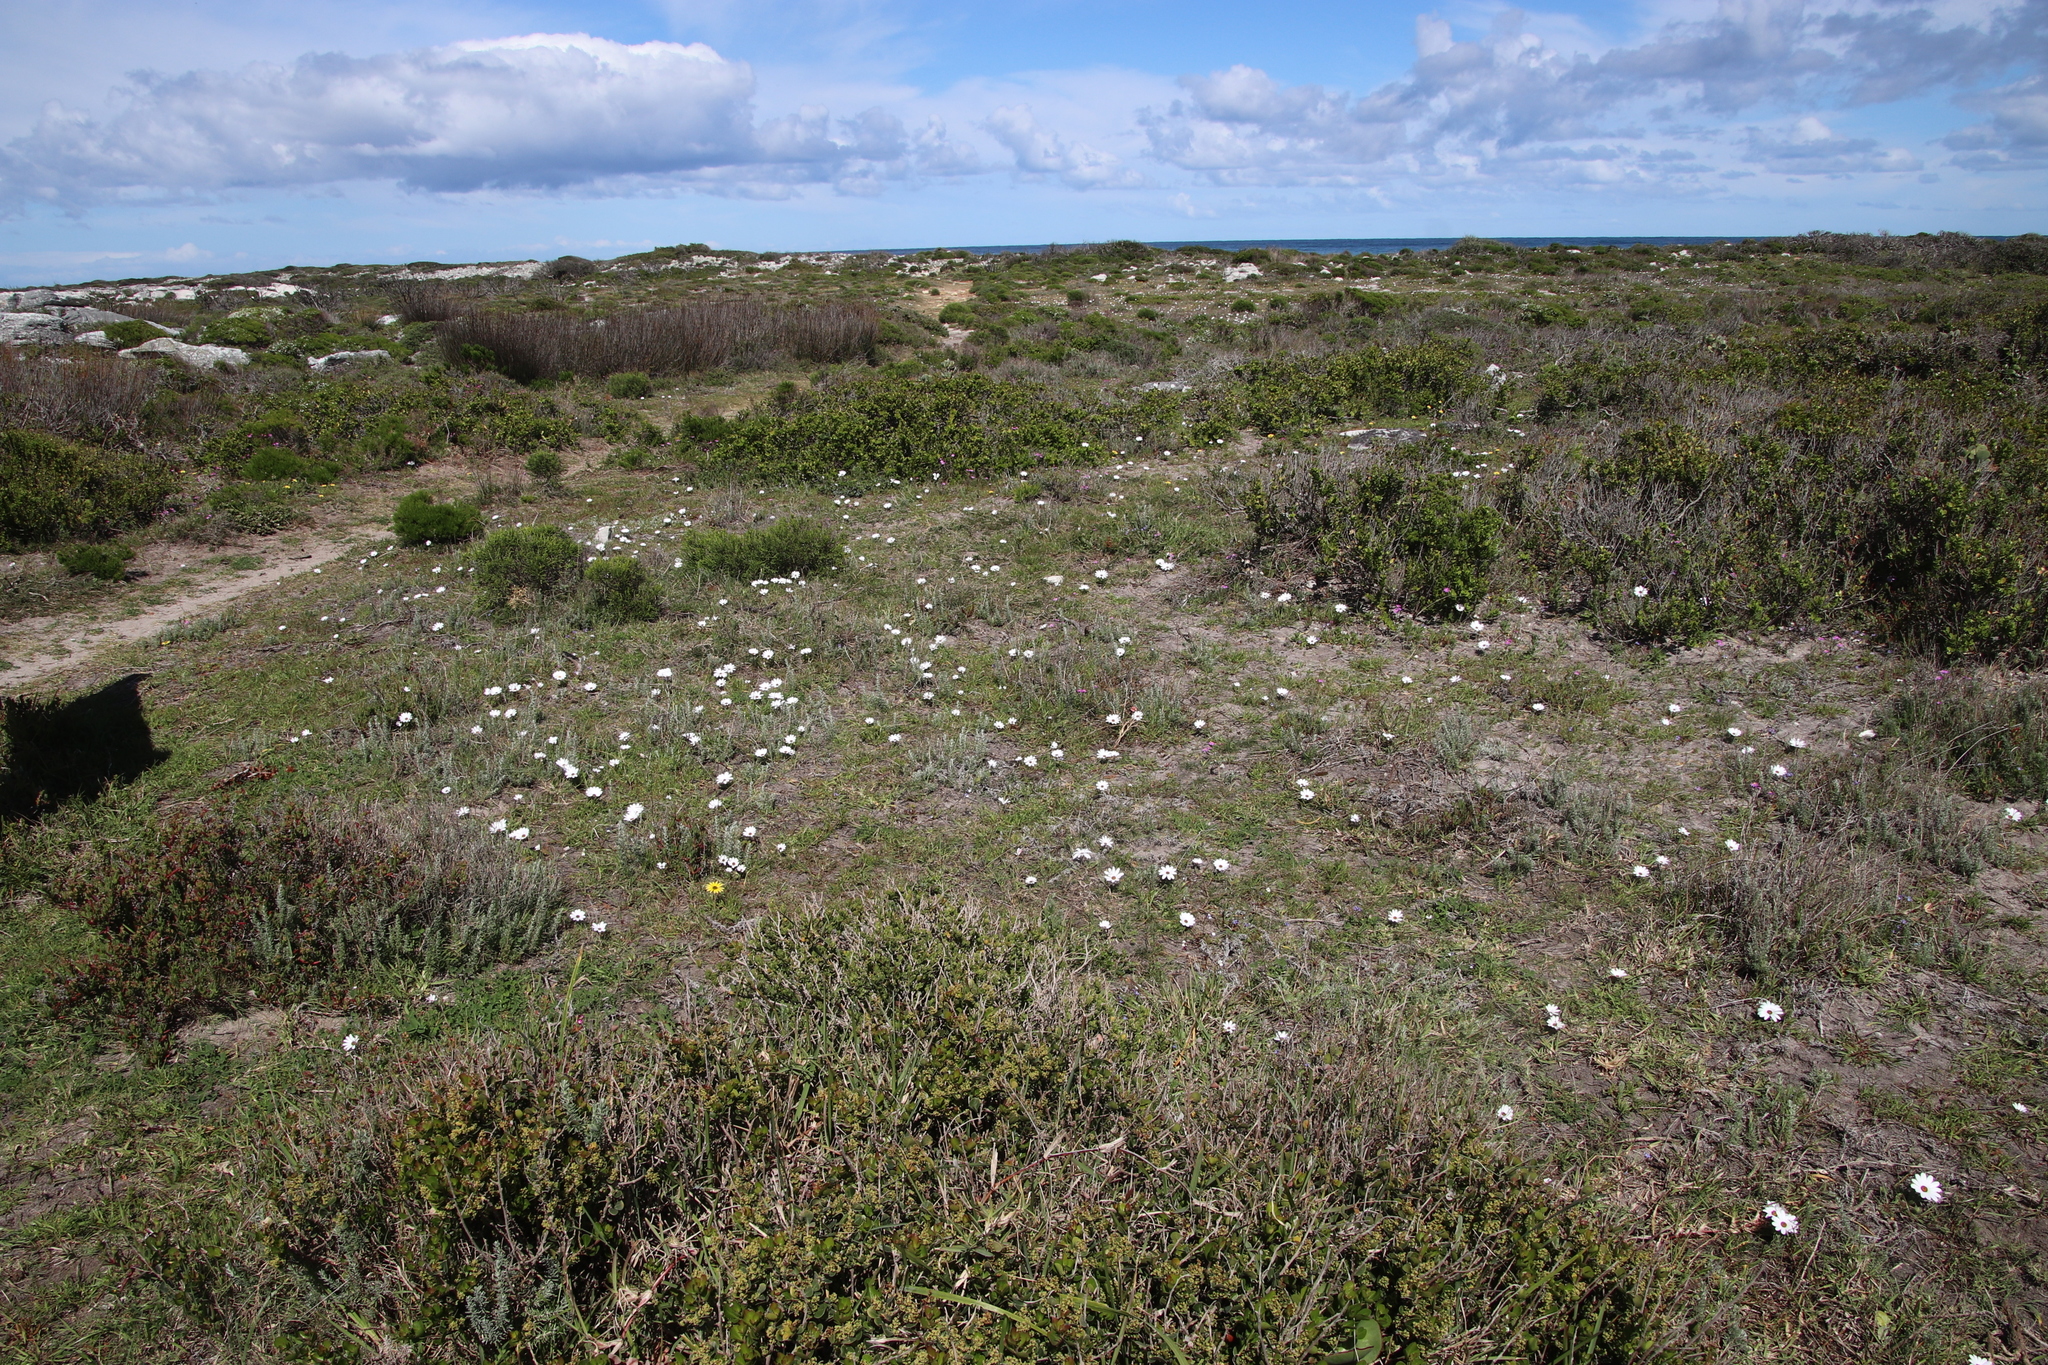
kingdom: Plantae
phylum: Tracheophyta
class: Magnoliopsida
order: Asterales
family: Asteraceae
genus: Dimorphotheca
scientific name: Dimorphotheca pluvialis
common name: Weather prophet
